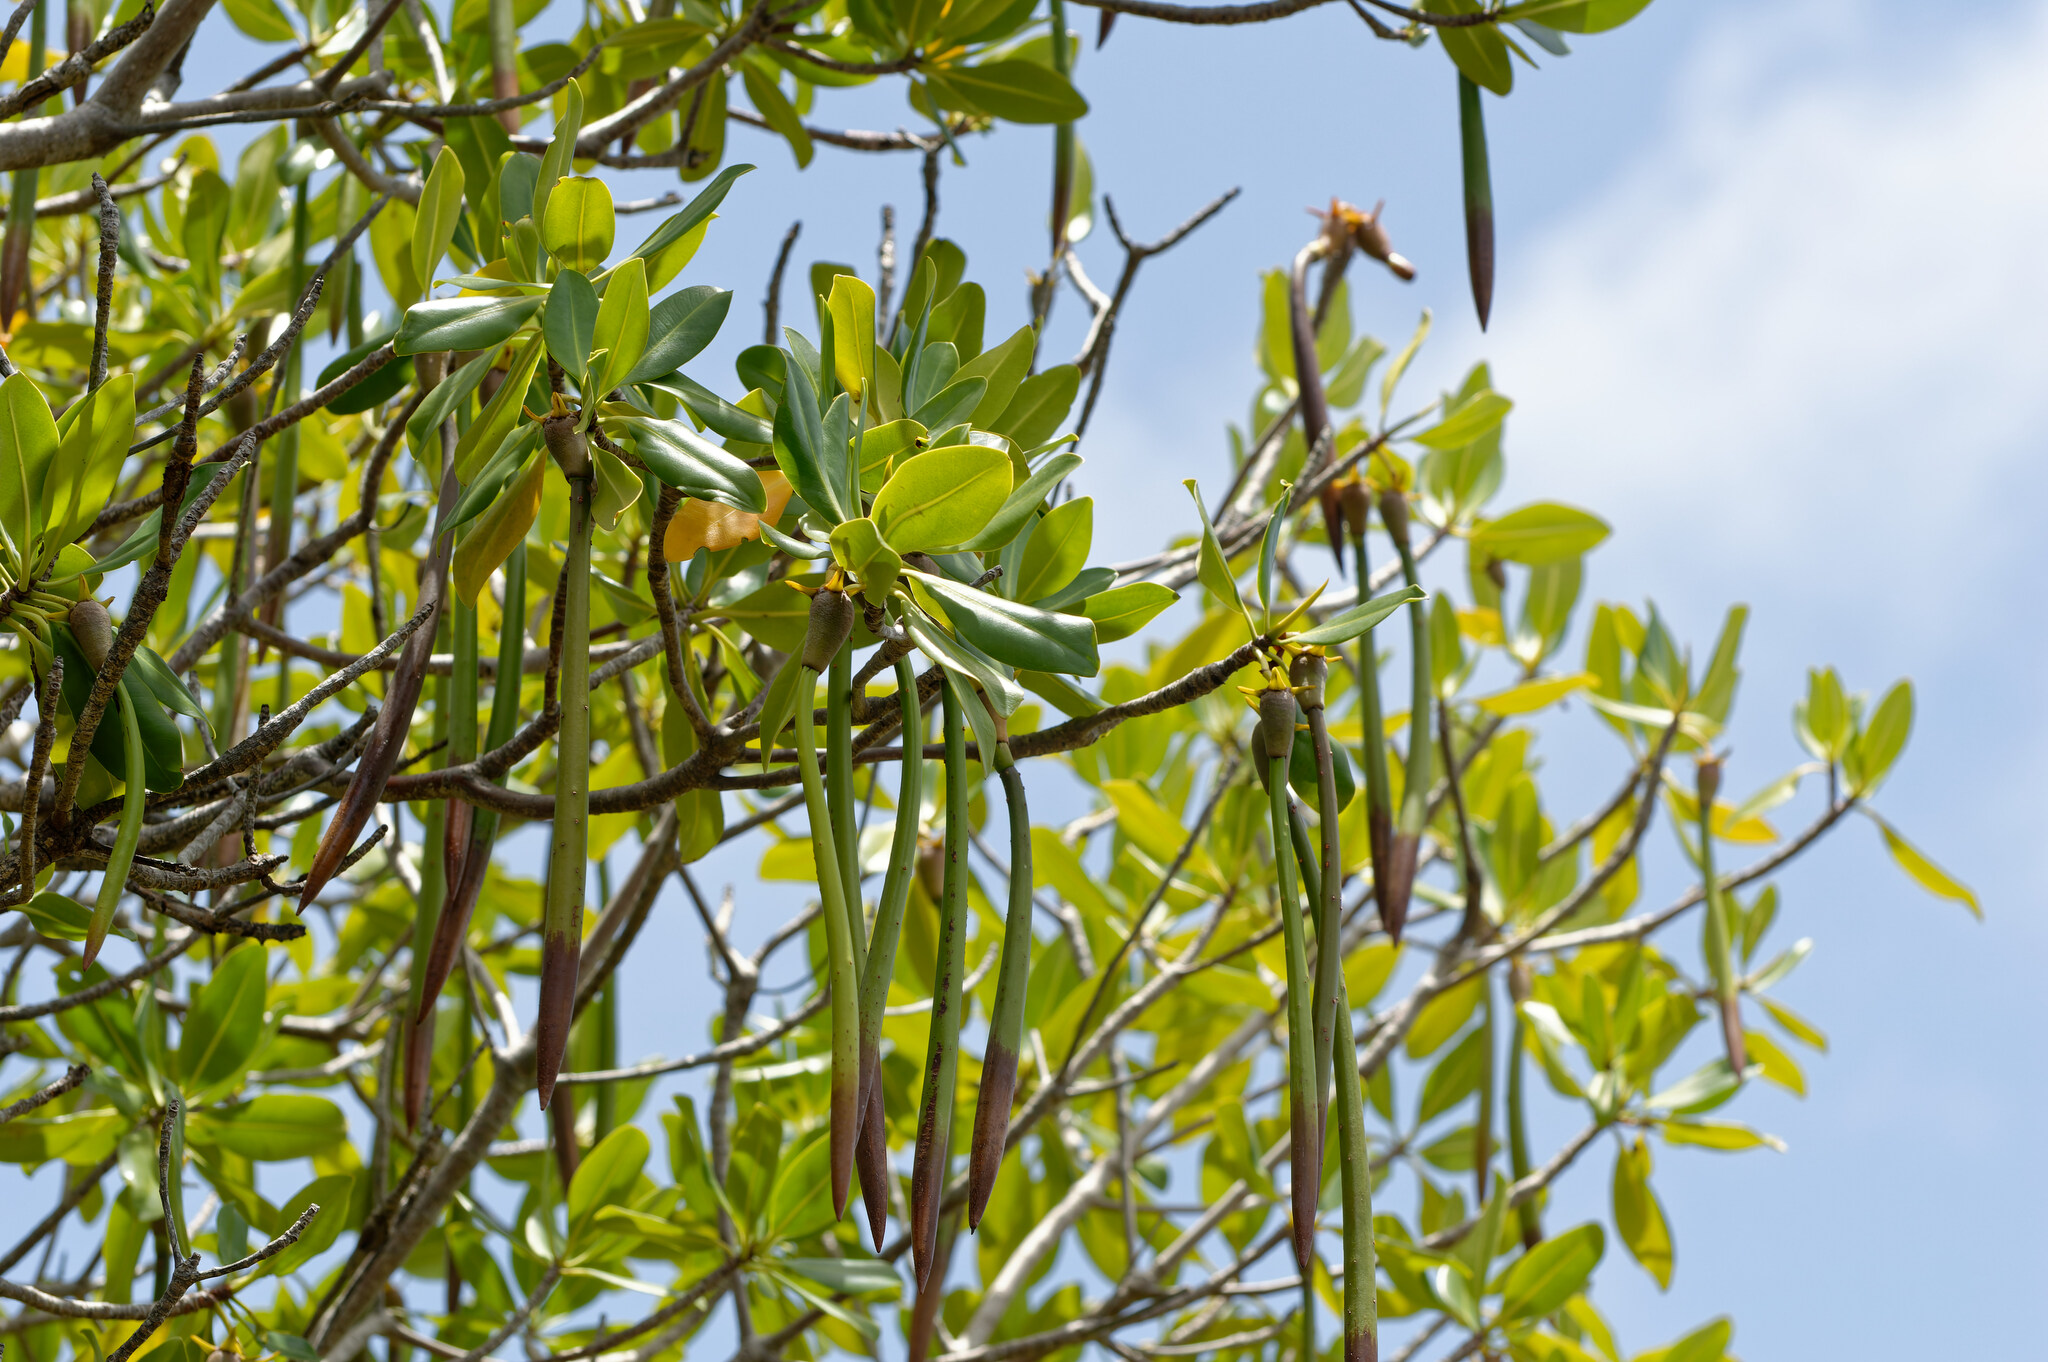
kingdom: Plantae
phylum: Tracheophyta
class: Magnoliopsida
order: Malpighiales
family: Rhizophoraceae
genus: Rhizophora
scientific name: Rhizophora mangle
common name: Red mangrove
